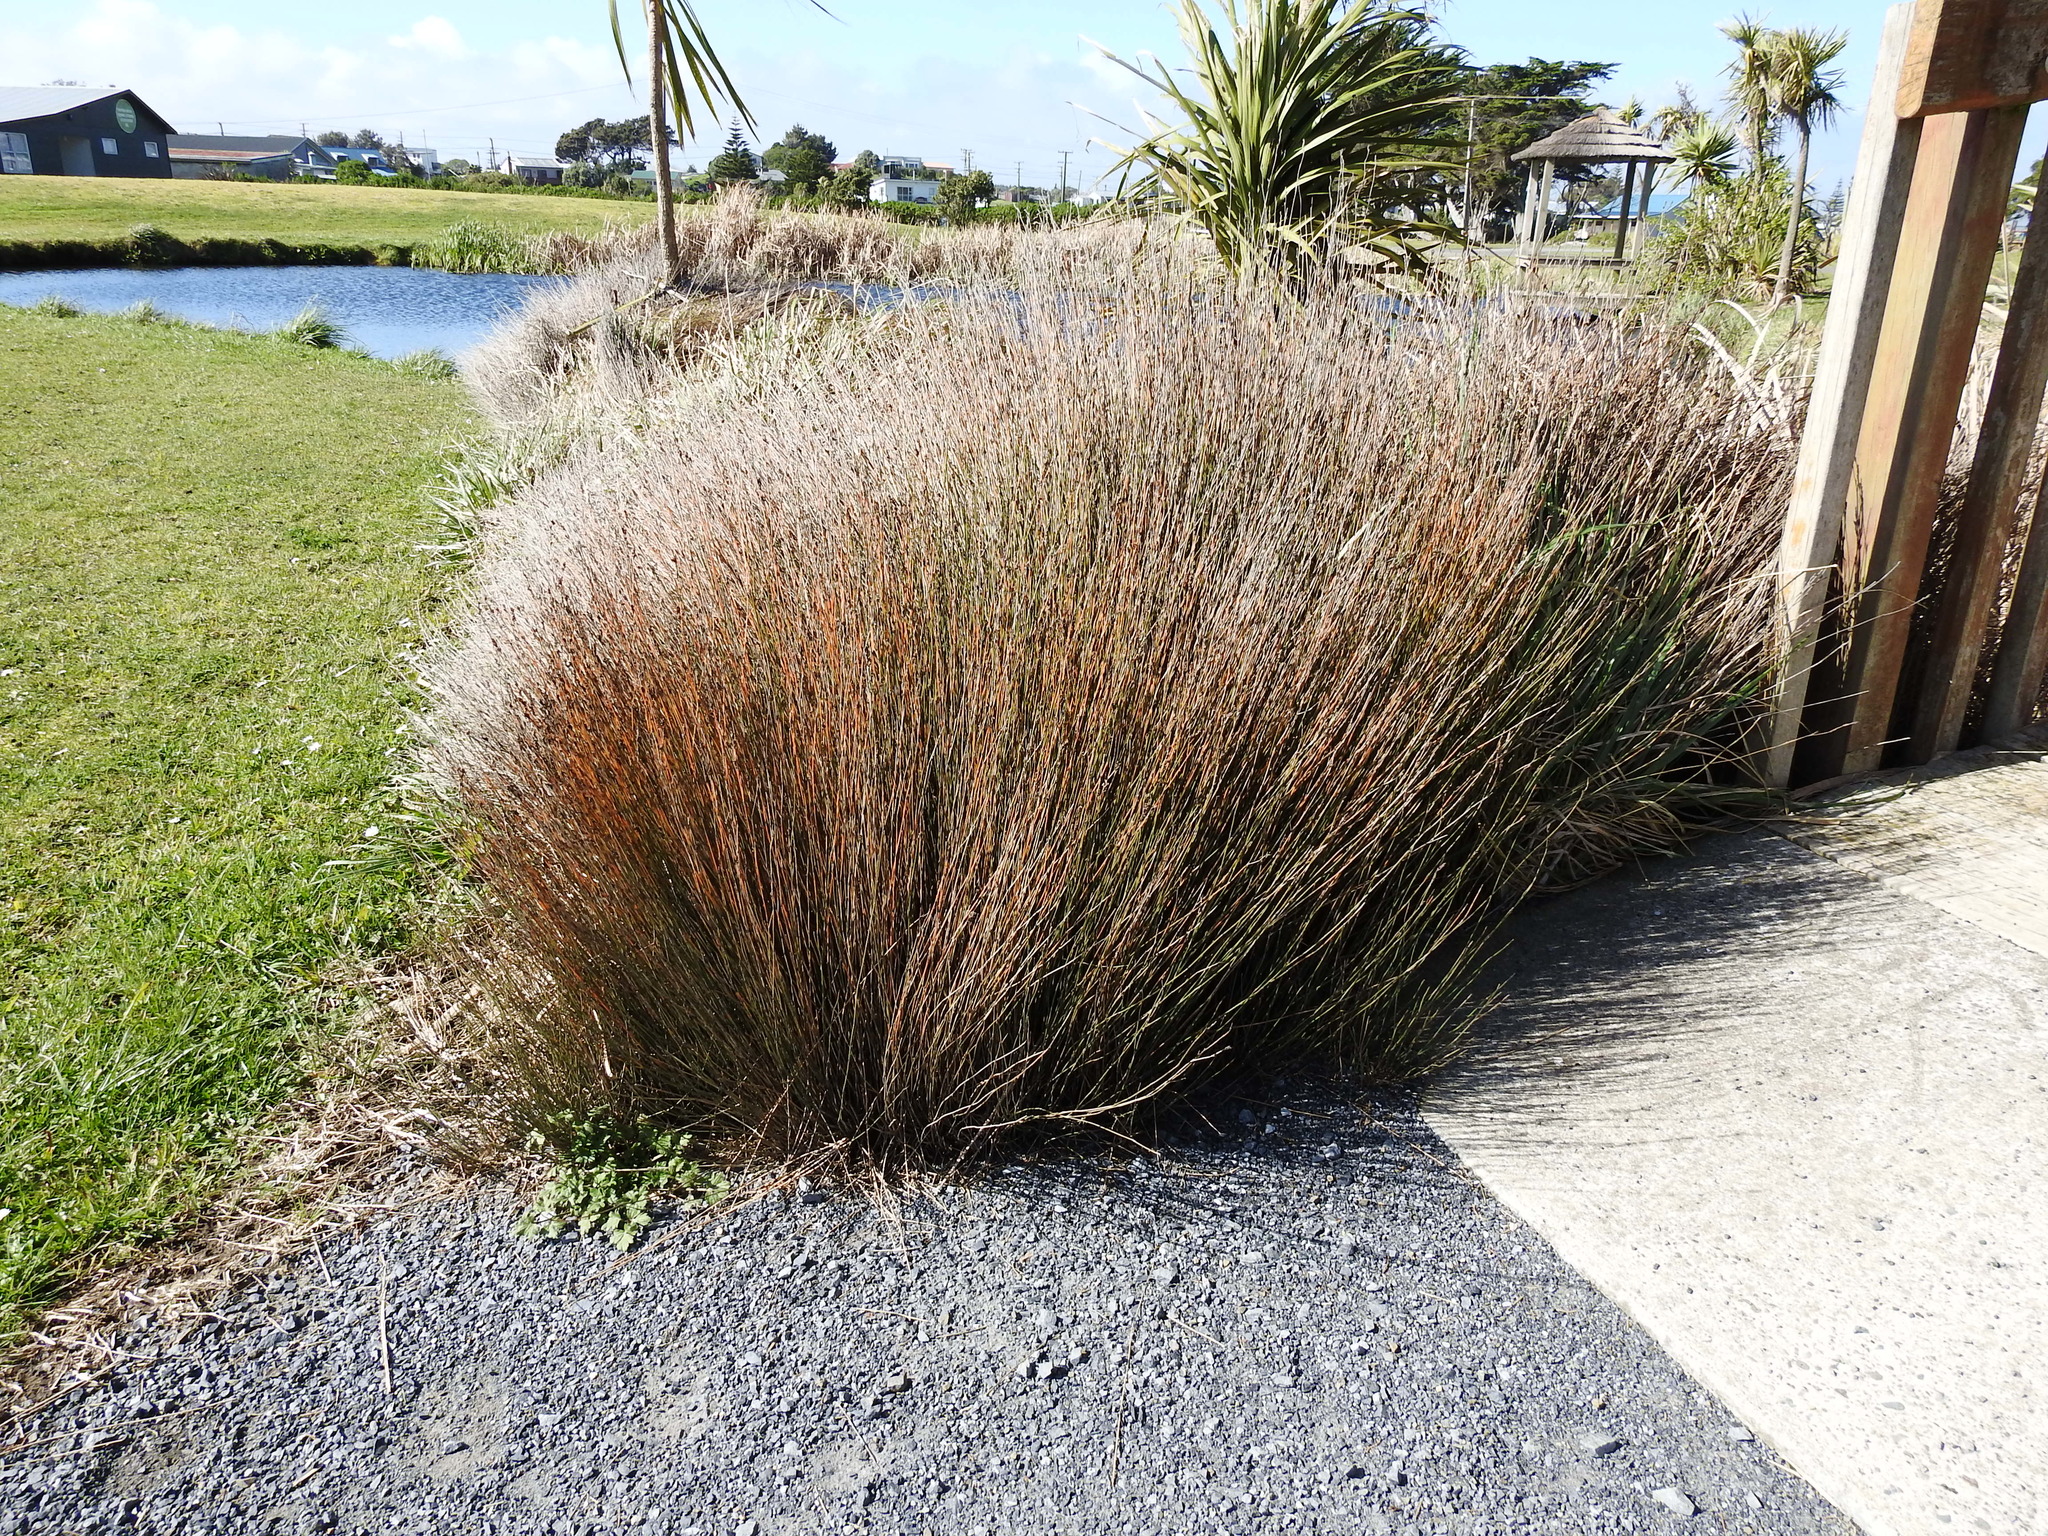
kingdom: Plantae
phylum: Tracheophyta
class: Liliopsida
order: Poales
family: Restionaceae
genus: Apodasmia
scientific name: Apodasmia similis
